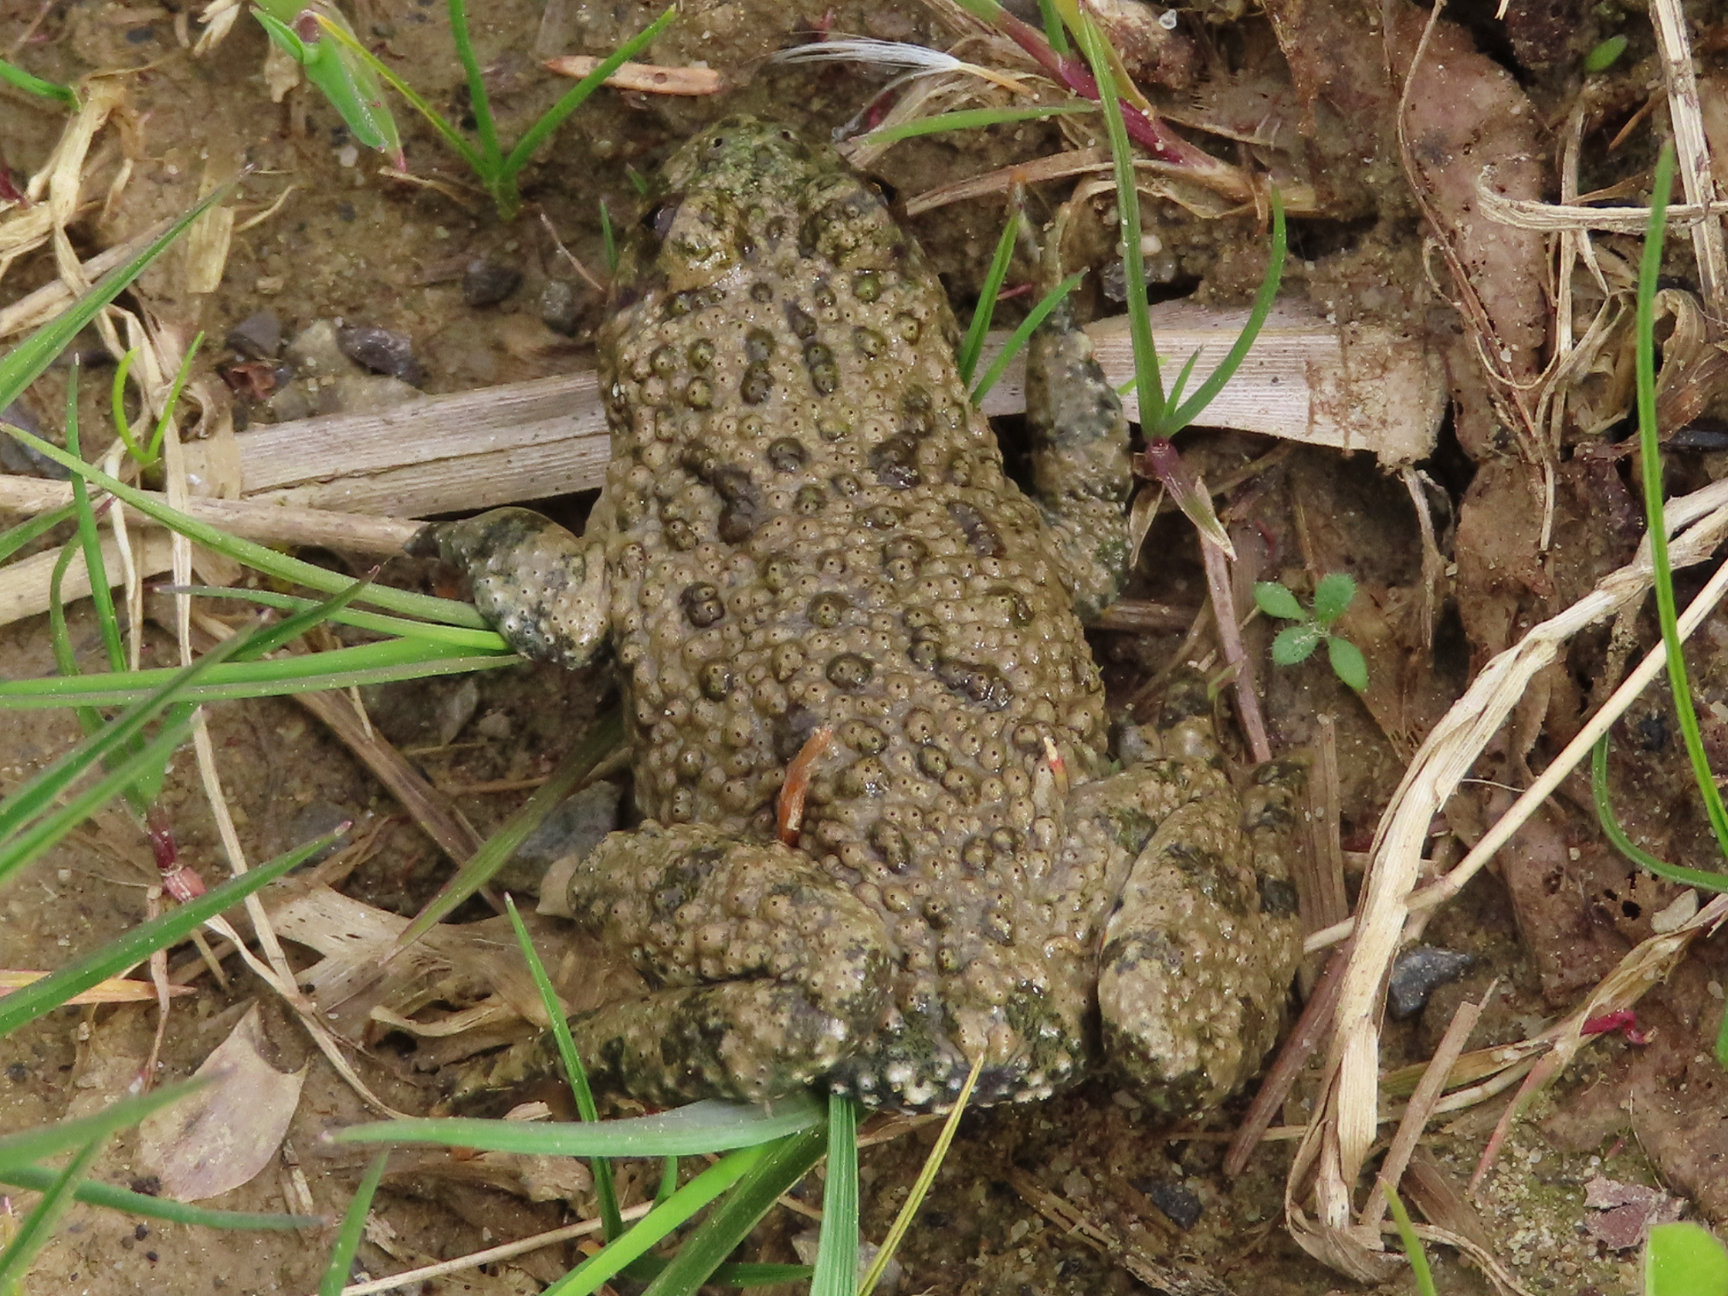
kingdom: Animalia
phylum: Chordata
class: Amphibia
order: Anura
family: Bombinatoridae
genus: Bombina
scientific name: Bombina variegata
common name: Yellow-bellied toad
